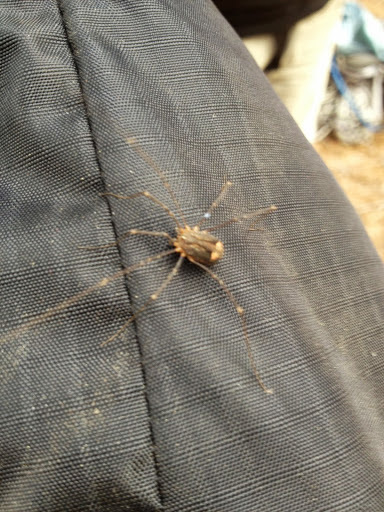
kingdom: Animalia
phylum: Arthropoda
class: Arachnida
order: Opiliones
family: Sclerosomatidae
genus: Nelima
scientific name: Nelima paessleri
